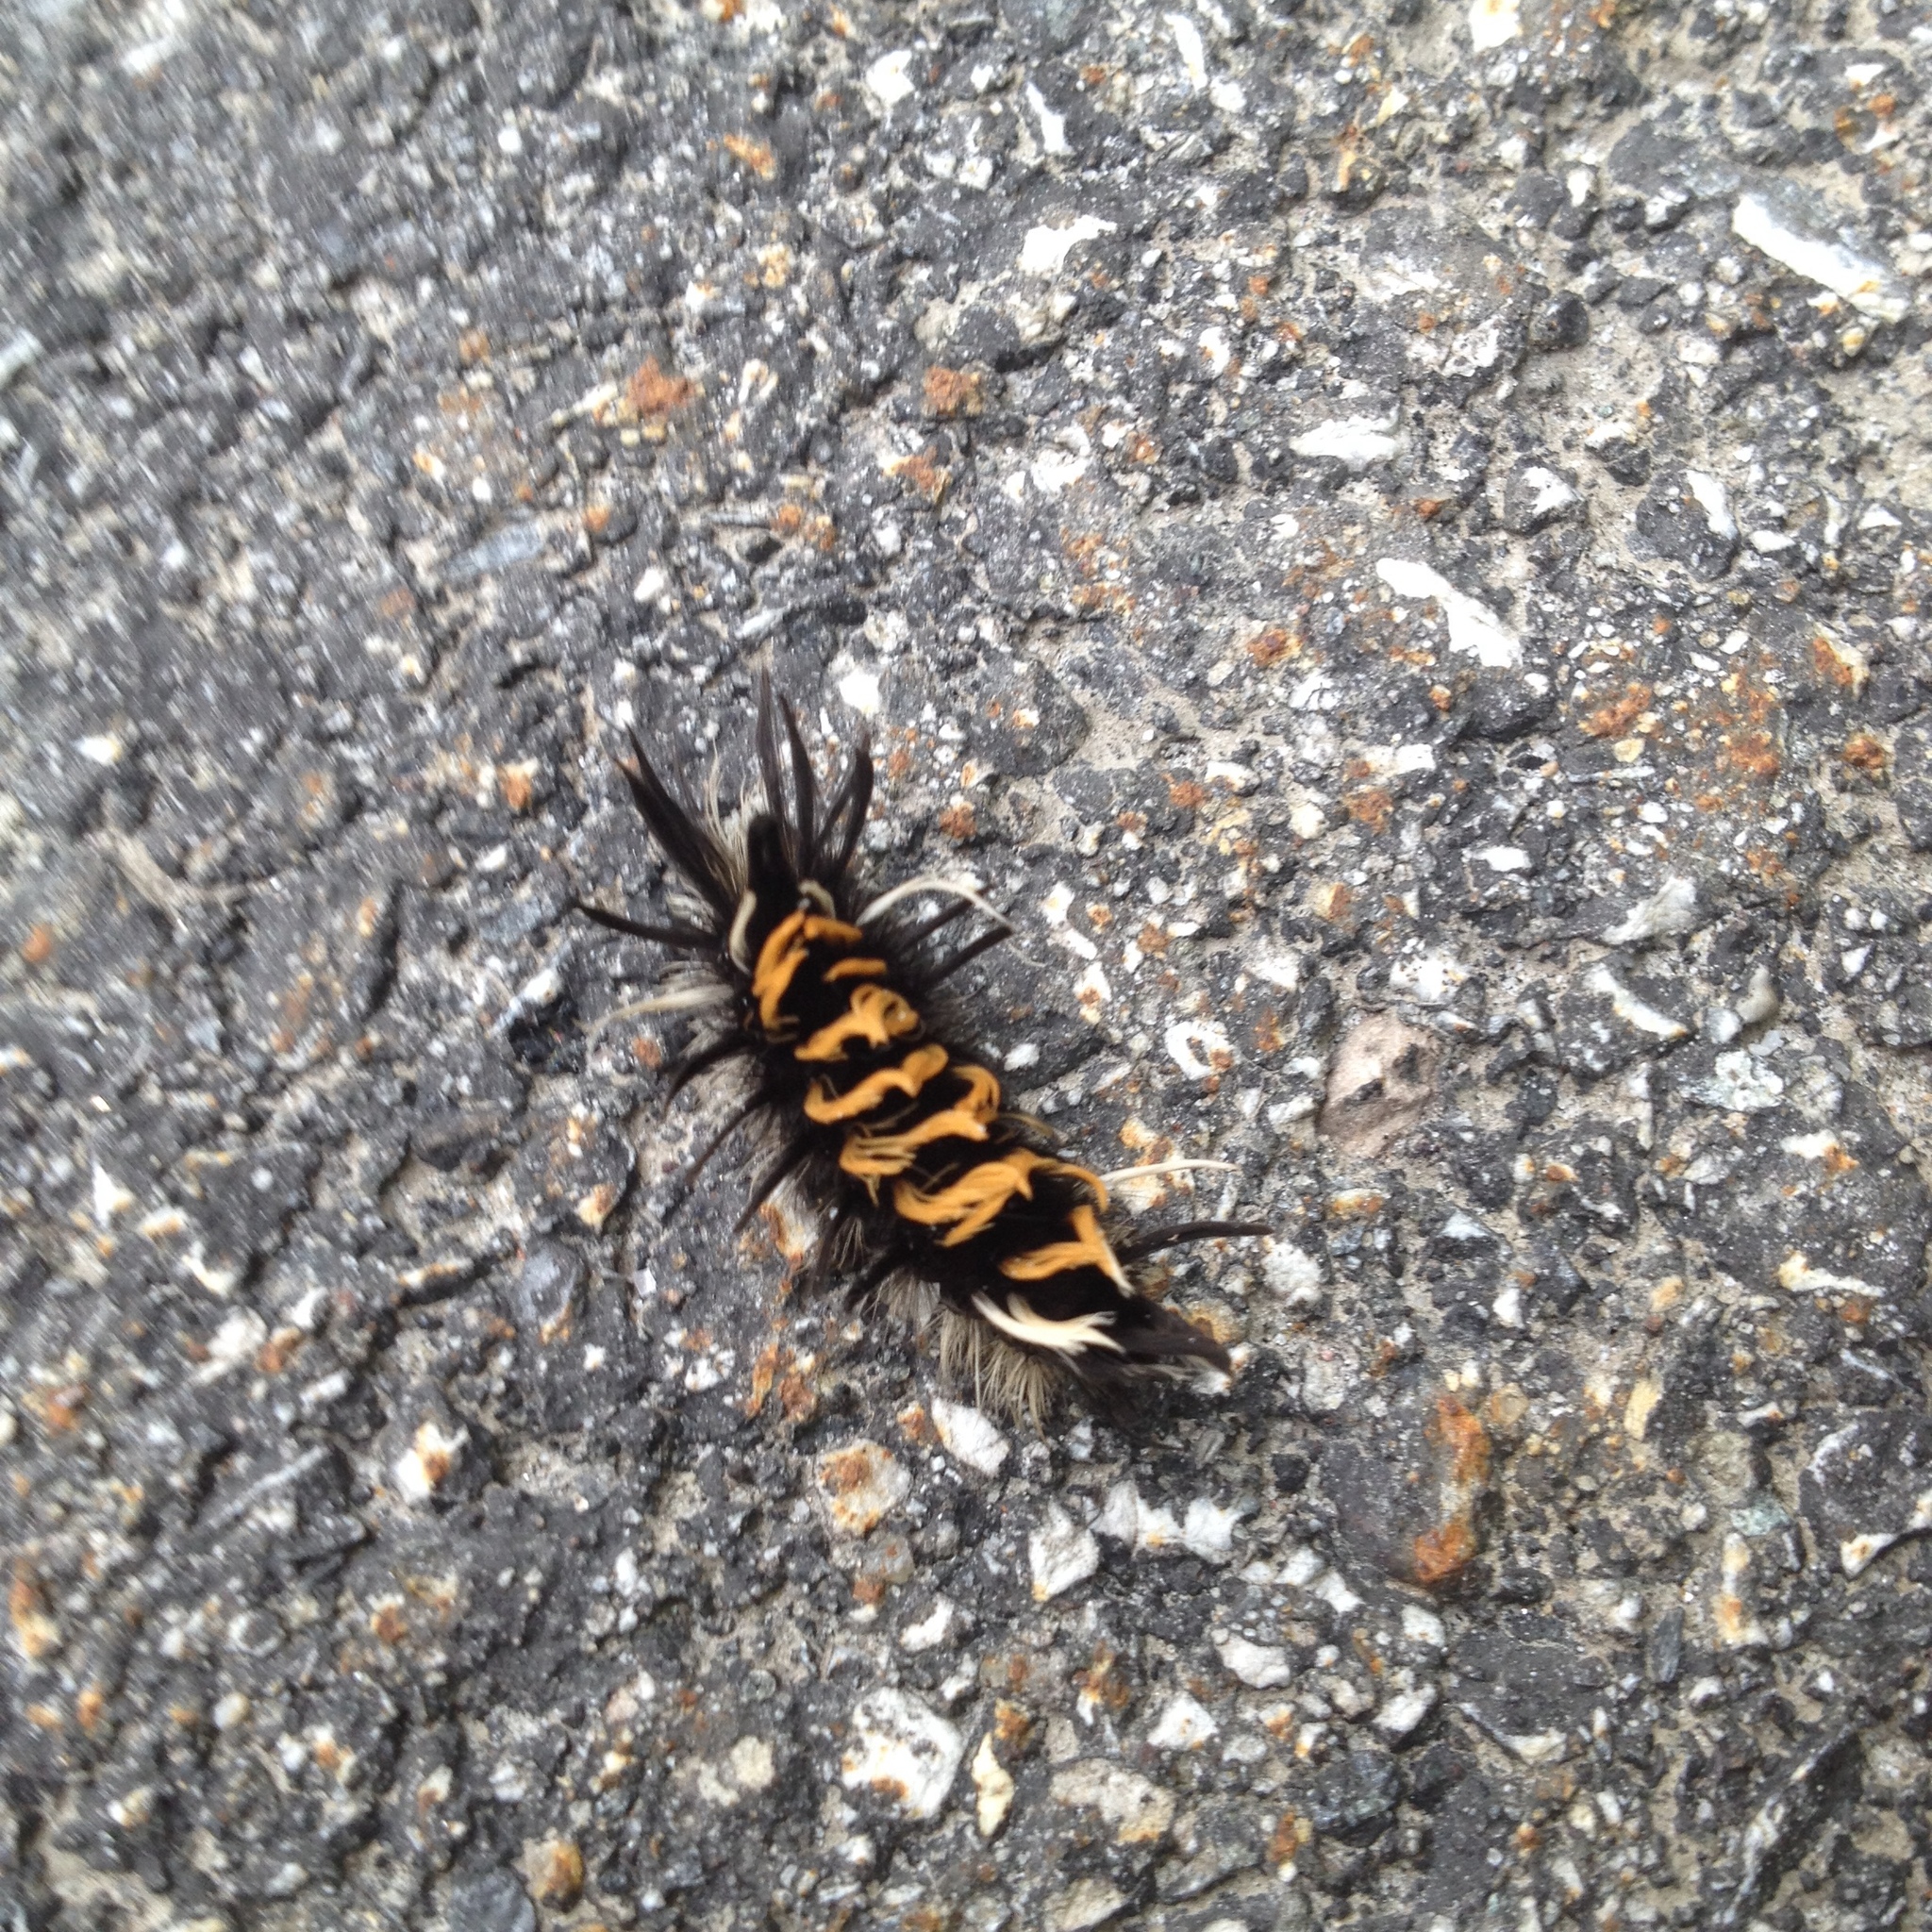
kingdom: Animalia
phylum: Arthropoda
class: Insecta
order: Lepidoptera
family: Erebidae
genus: Euchaetes
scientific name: Euchaetes egle
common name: Milkweed tussock moth
